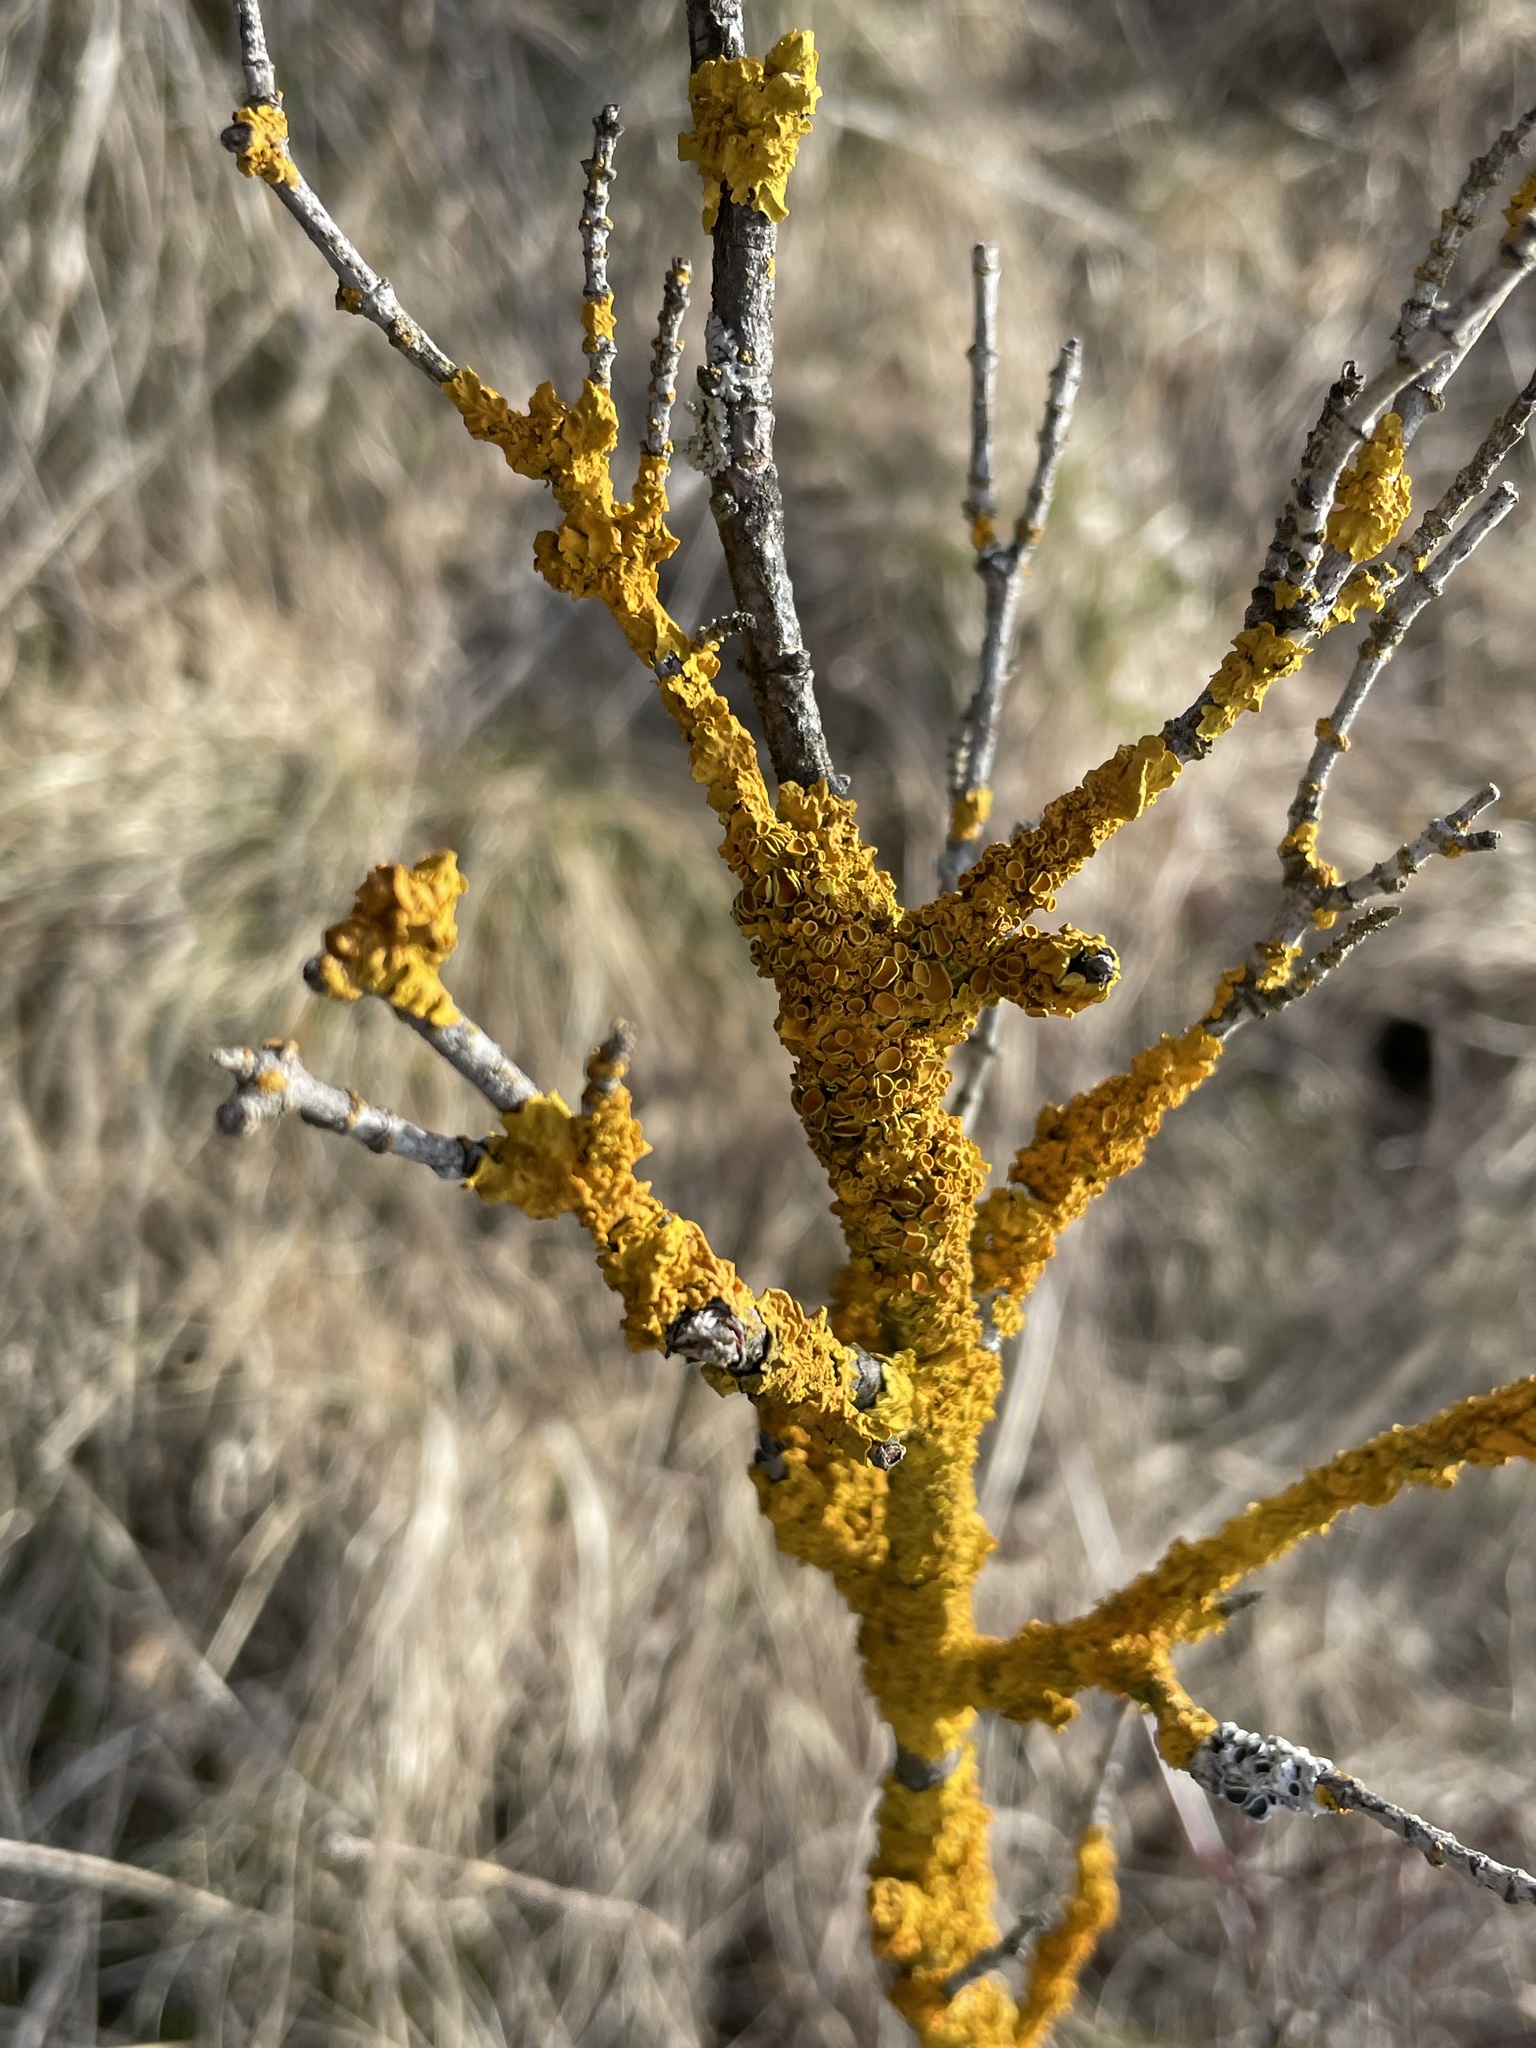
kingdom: Fungi
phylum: Ascomycota
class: Lecanoromycetes
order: Teloschistales
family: Teloschistaceae
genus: Xanthoria
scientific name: Xanthoria parietina
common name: Common orange lichen
